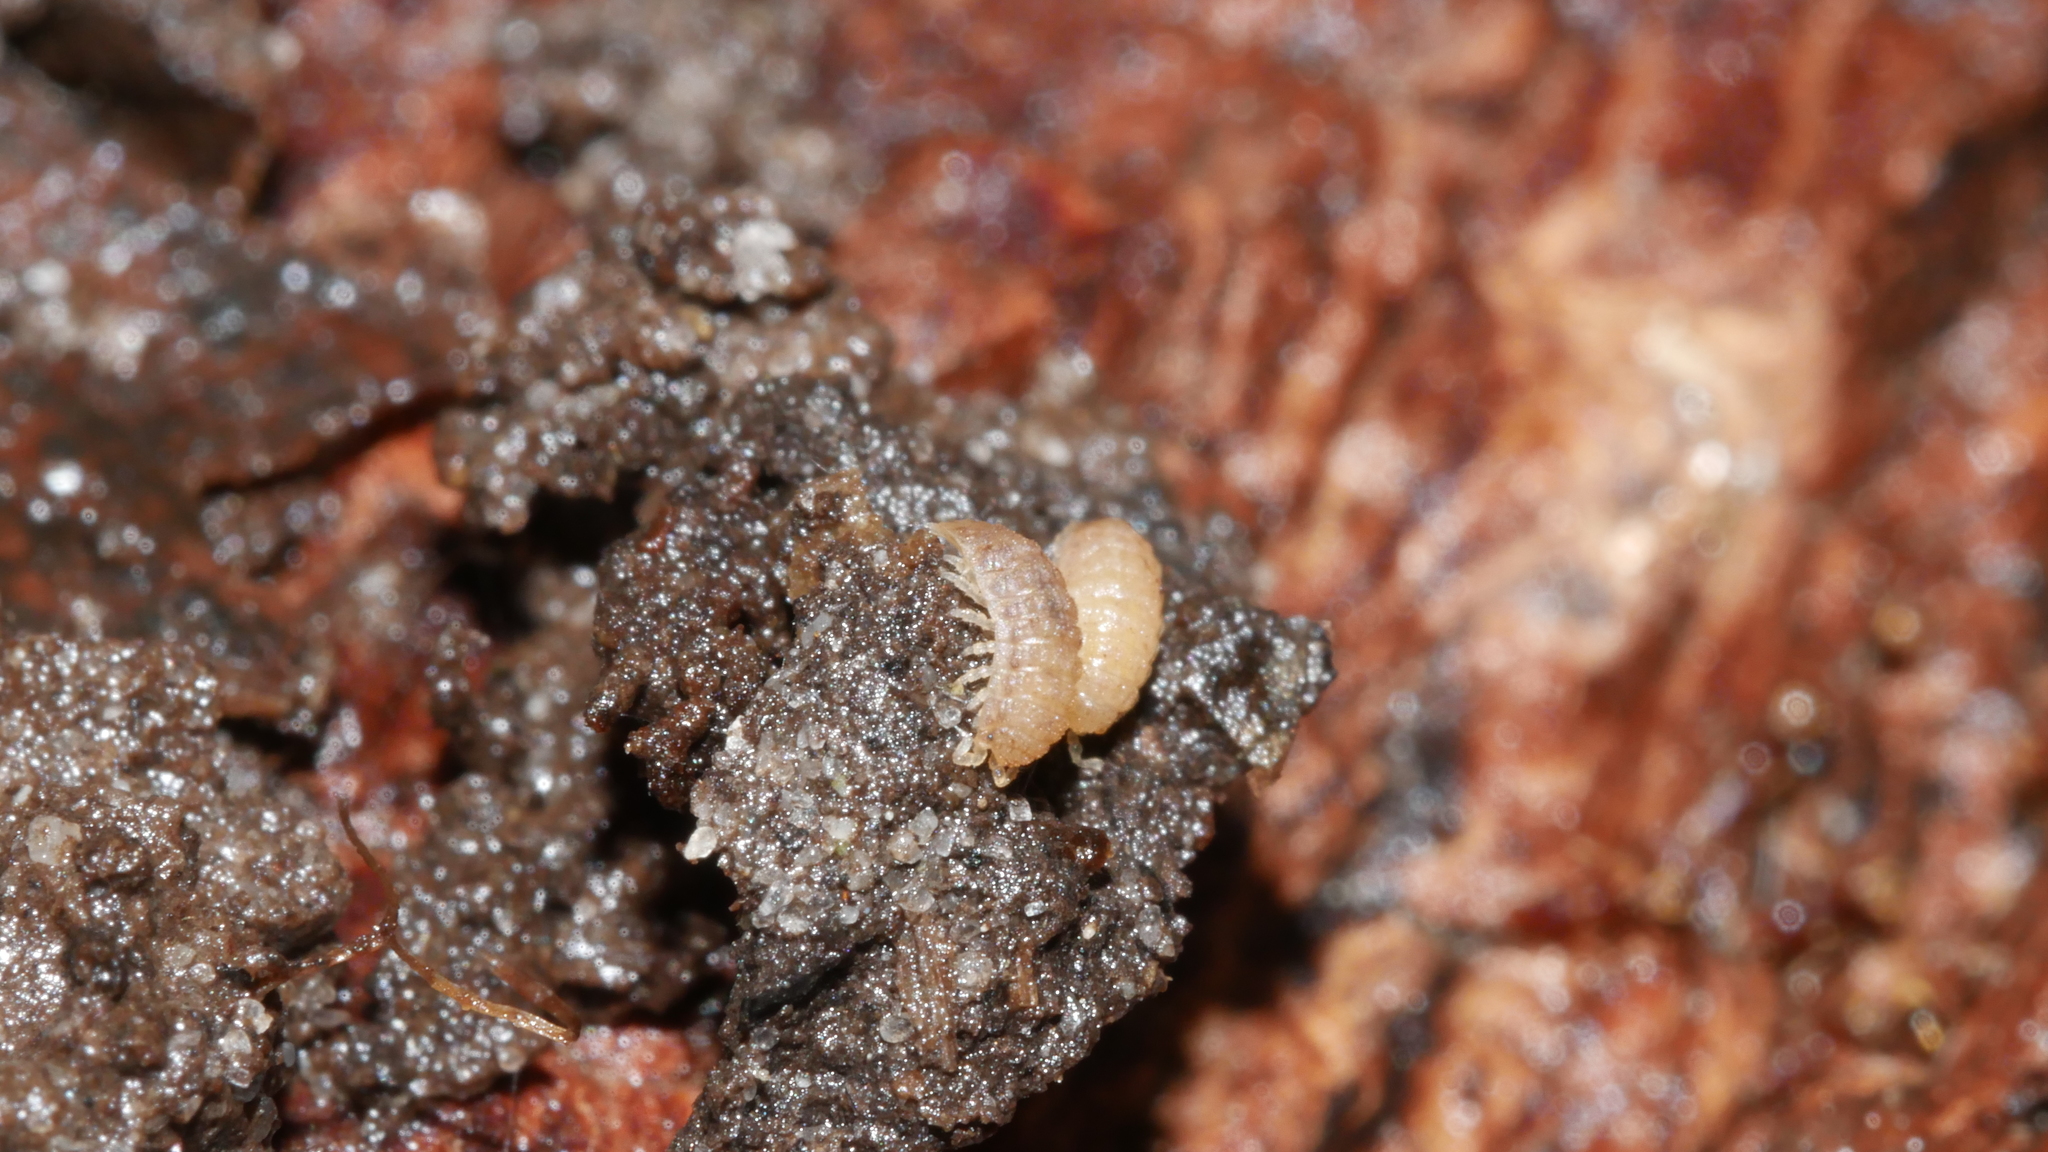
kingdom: Animalia
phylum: Arthropoda
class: Malacostraca
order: Isopoda
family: Trichoniscidae
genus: Haplophthalmus
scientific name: Haplophthalmus danicus
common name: Pillbug
